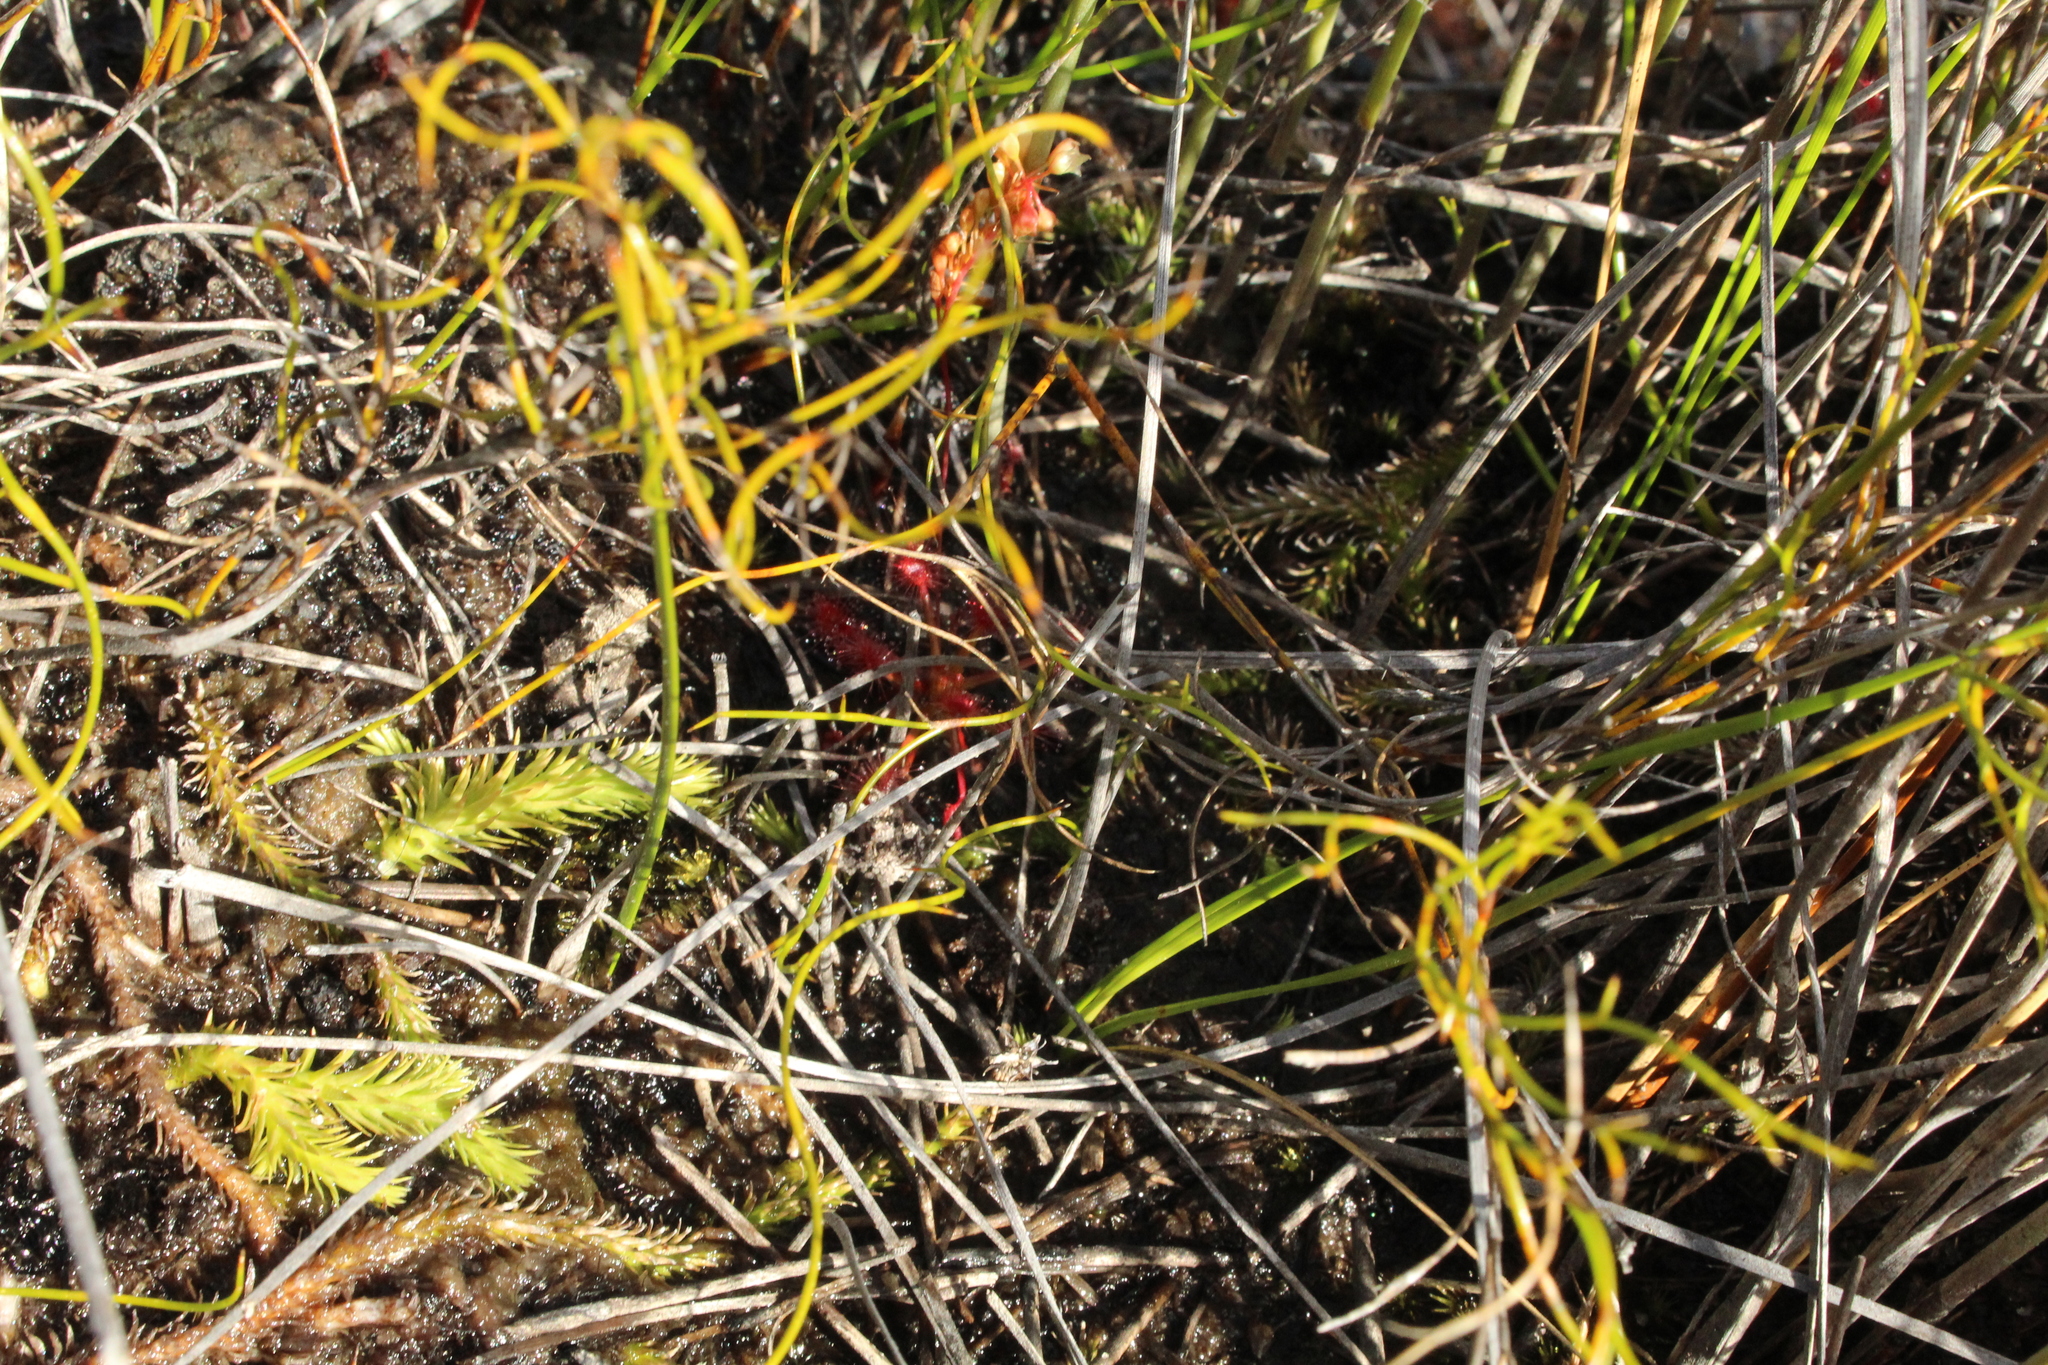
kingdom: Plantae
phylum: Tracheophyta
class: Lycopodiopsida
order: Lycopodiales
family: Lycopodiaceae
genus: Brownseya
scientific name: Brownseya serpentina
